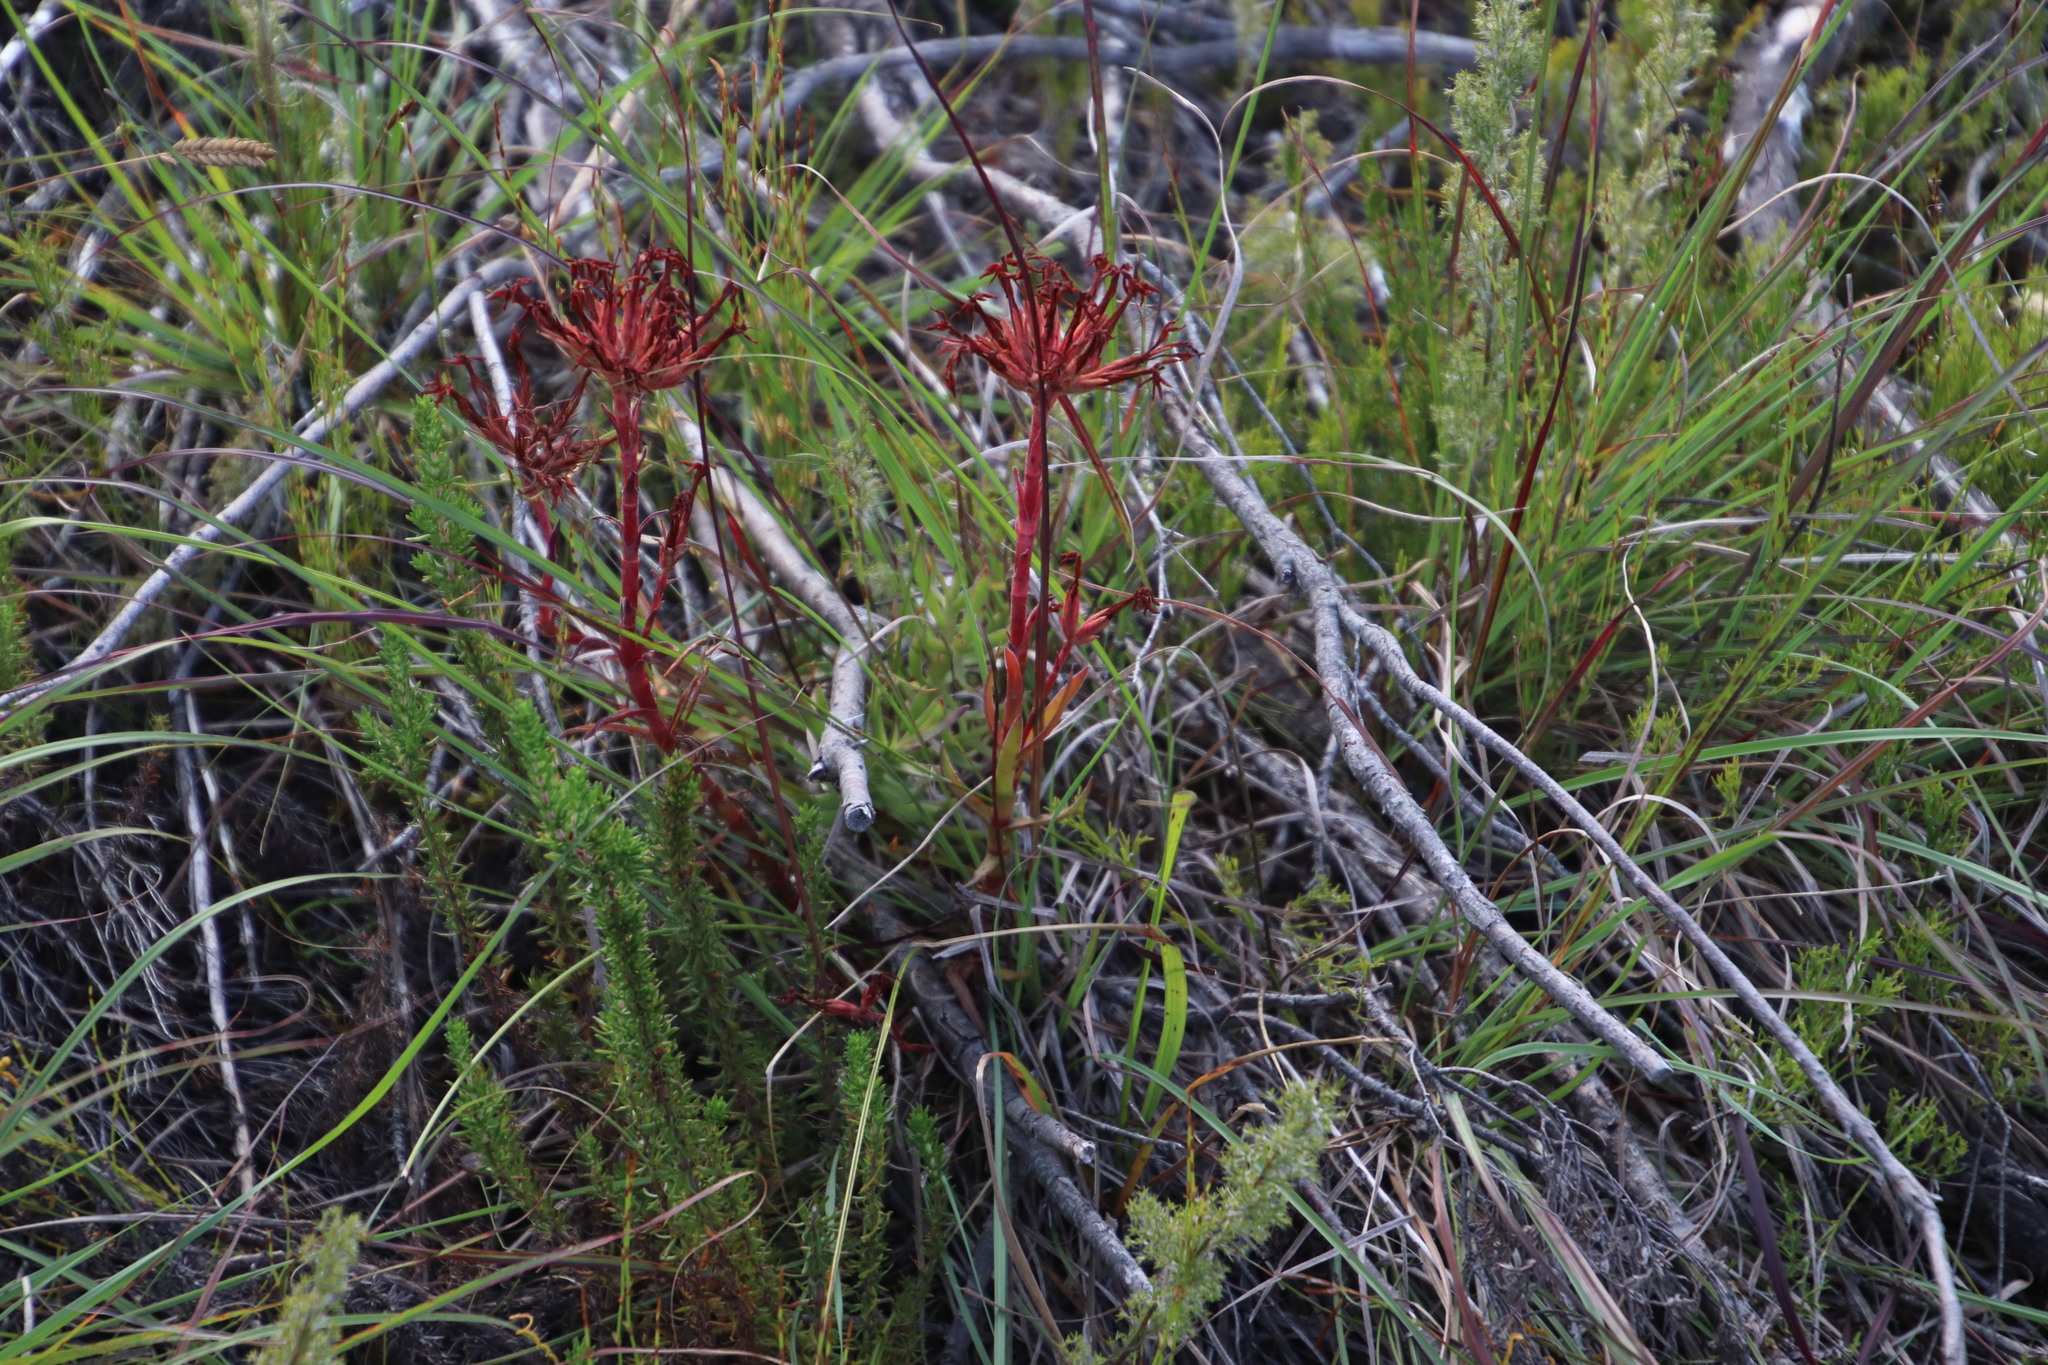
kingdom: Plantae
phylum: Tracheophyta
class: Magnoliopsida
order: Saxifragales
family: Crassulaceae
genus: Crassula
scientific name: Crassula fascicularis
